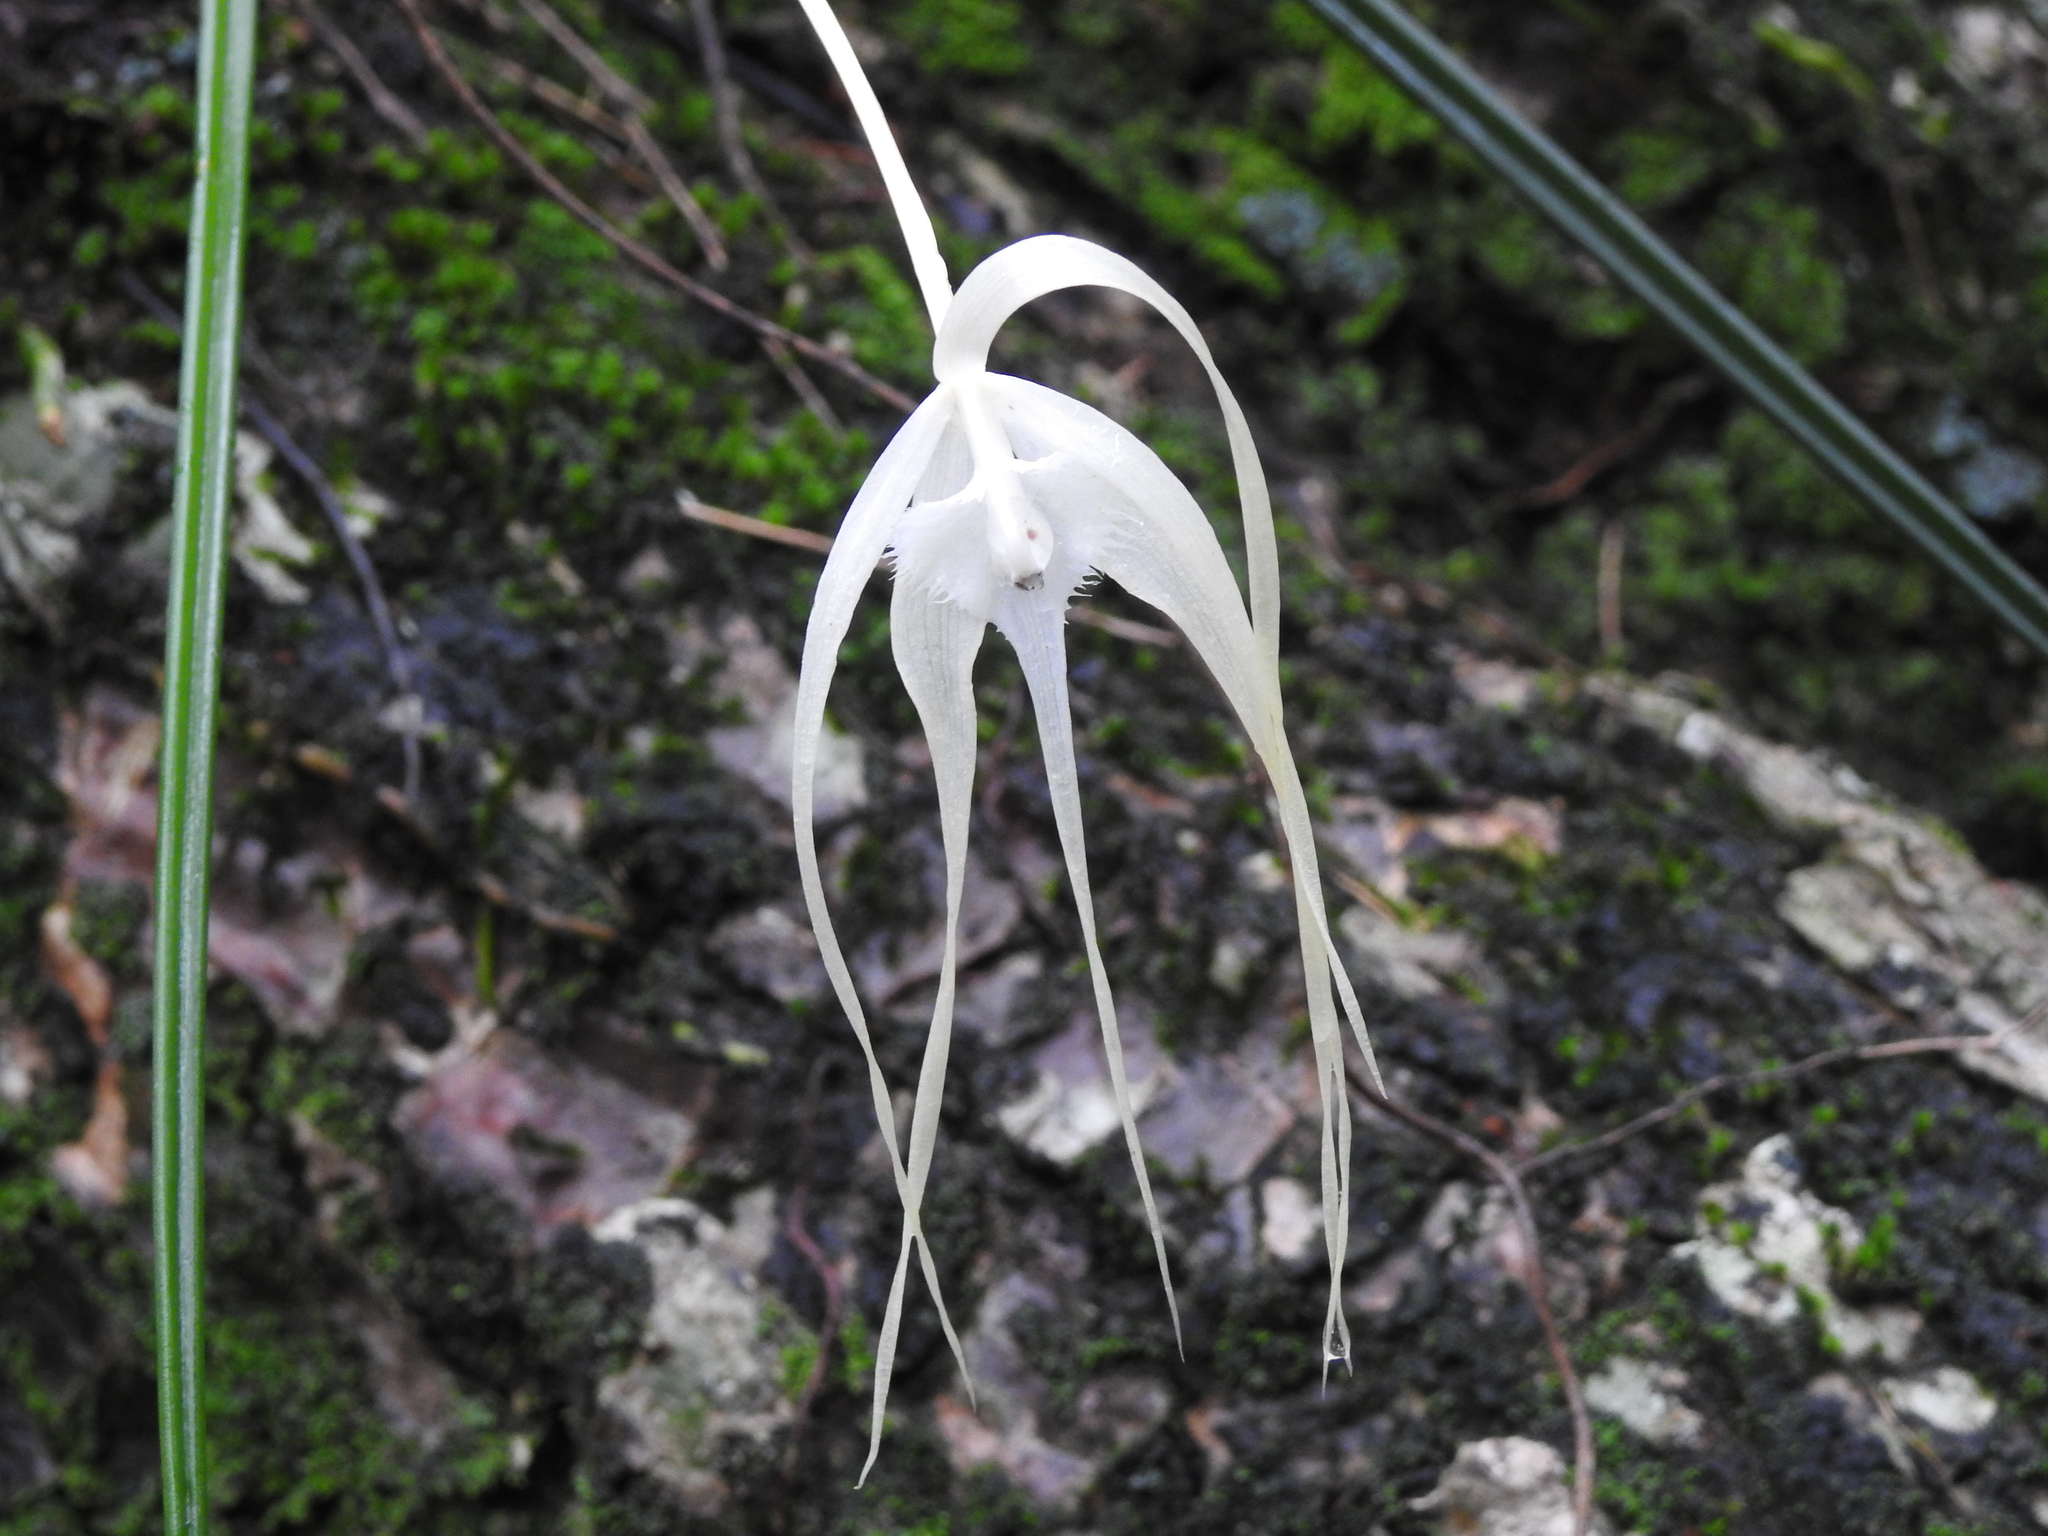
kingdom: Plantae
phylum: Tracheophyta
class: Liliopsida
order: Asparagales
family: Orchidaceae
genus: Brassavola
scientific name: Brassavola cucullata
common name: Daddy longlegs orchid
